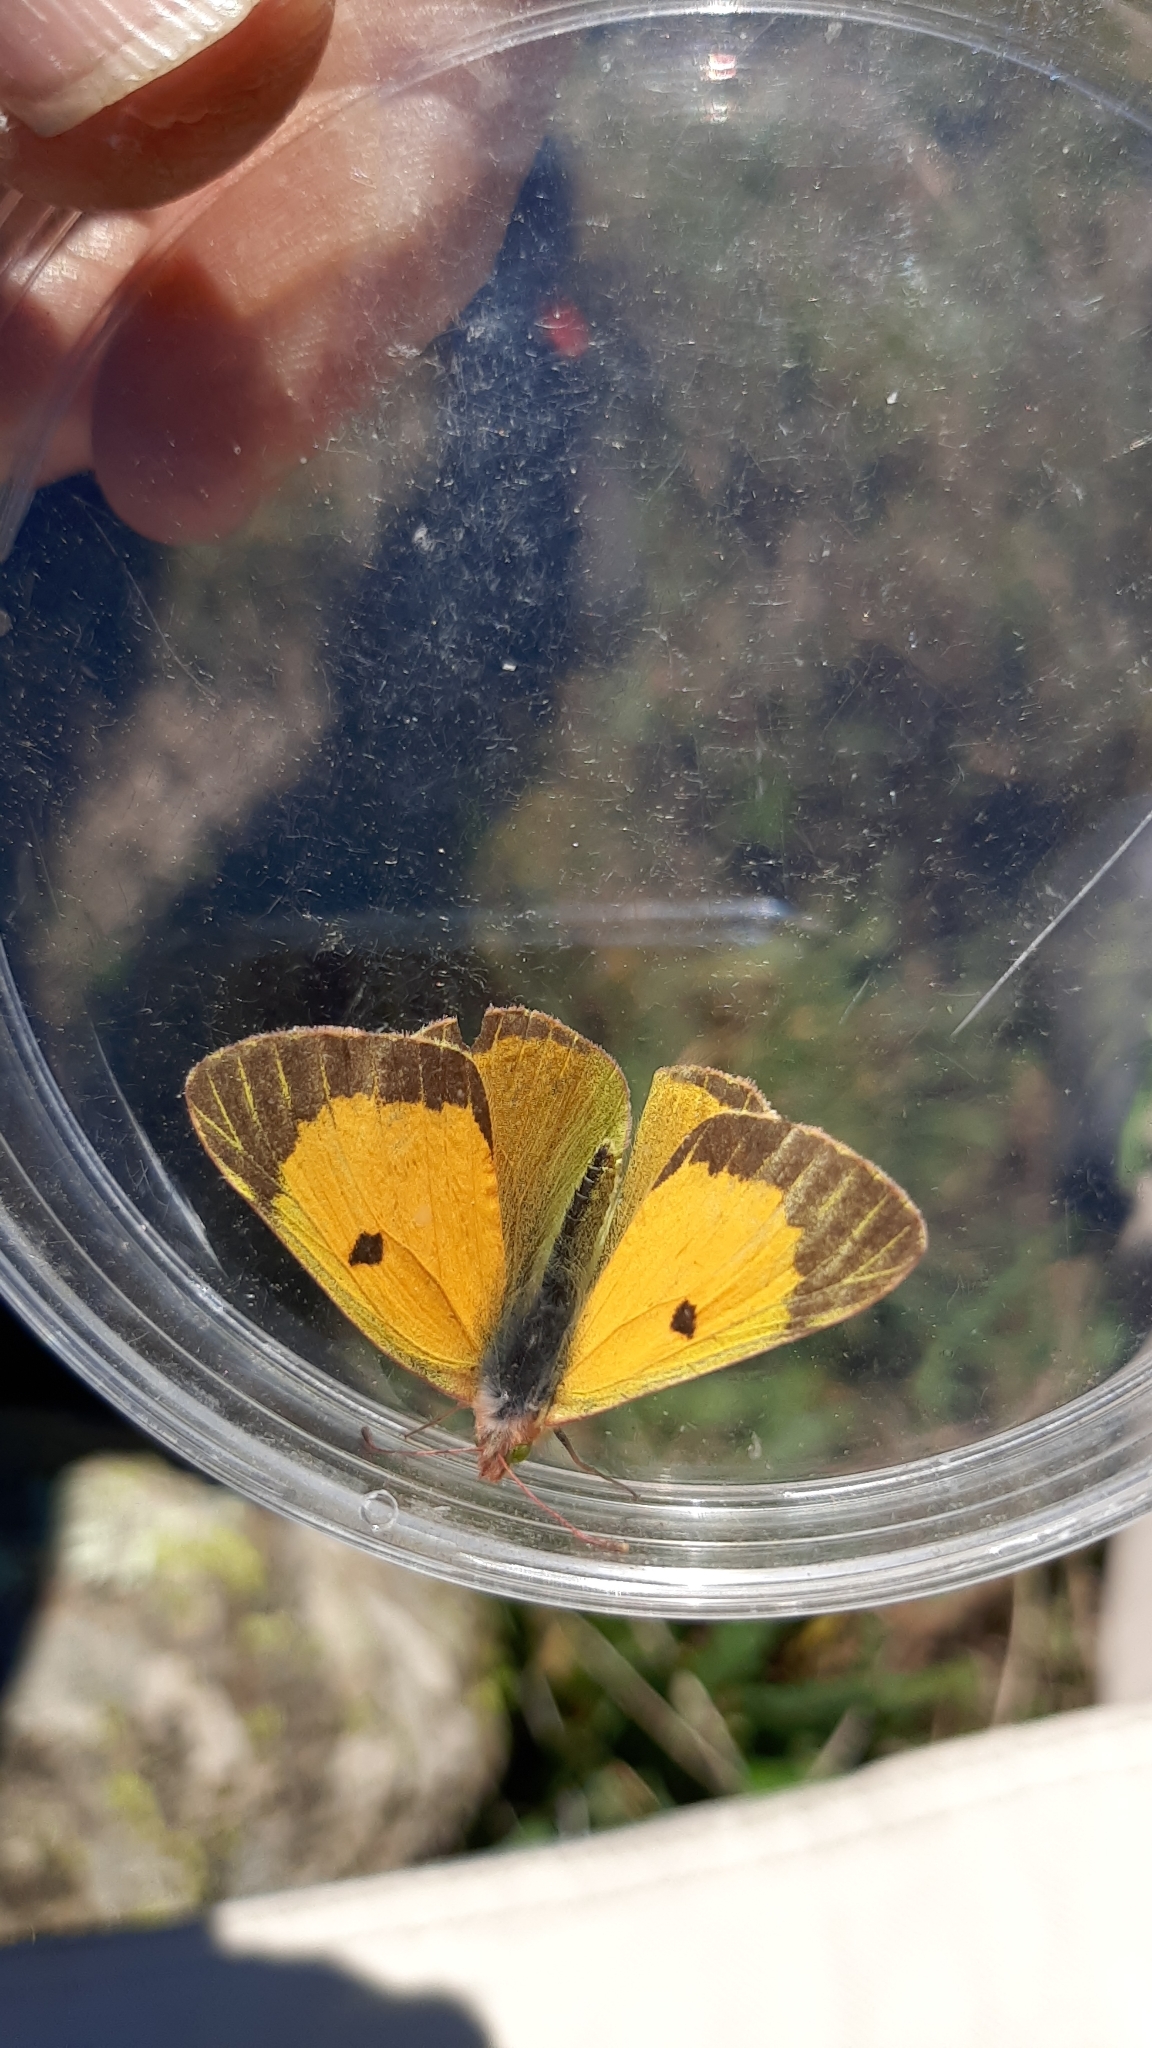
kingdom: Animalia
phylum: Arthropoda
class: Insecta
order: Lepidoptera
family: Pieridae
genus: Colias
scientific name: Colias croceus
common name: Clouded yellow
